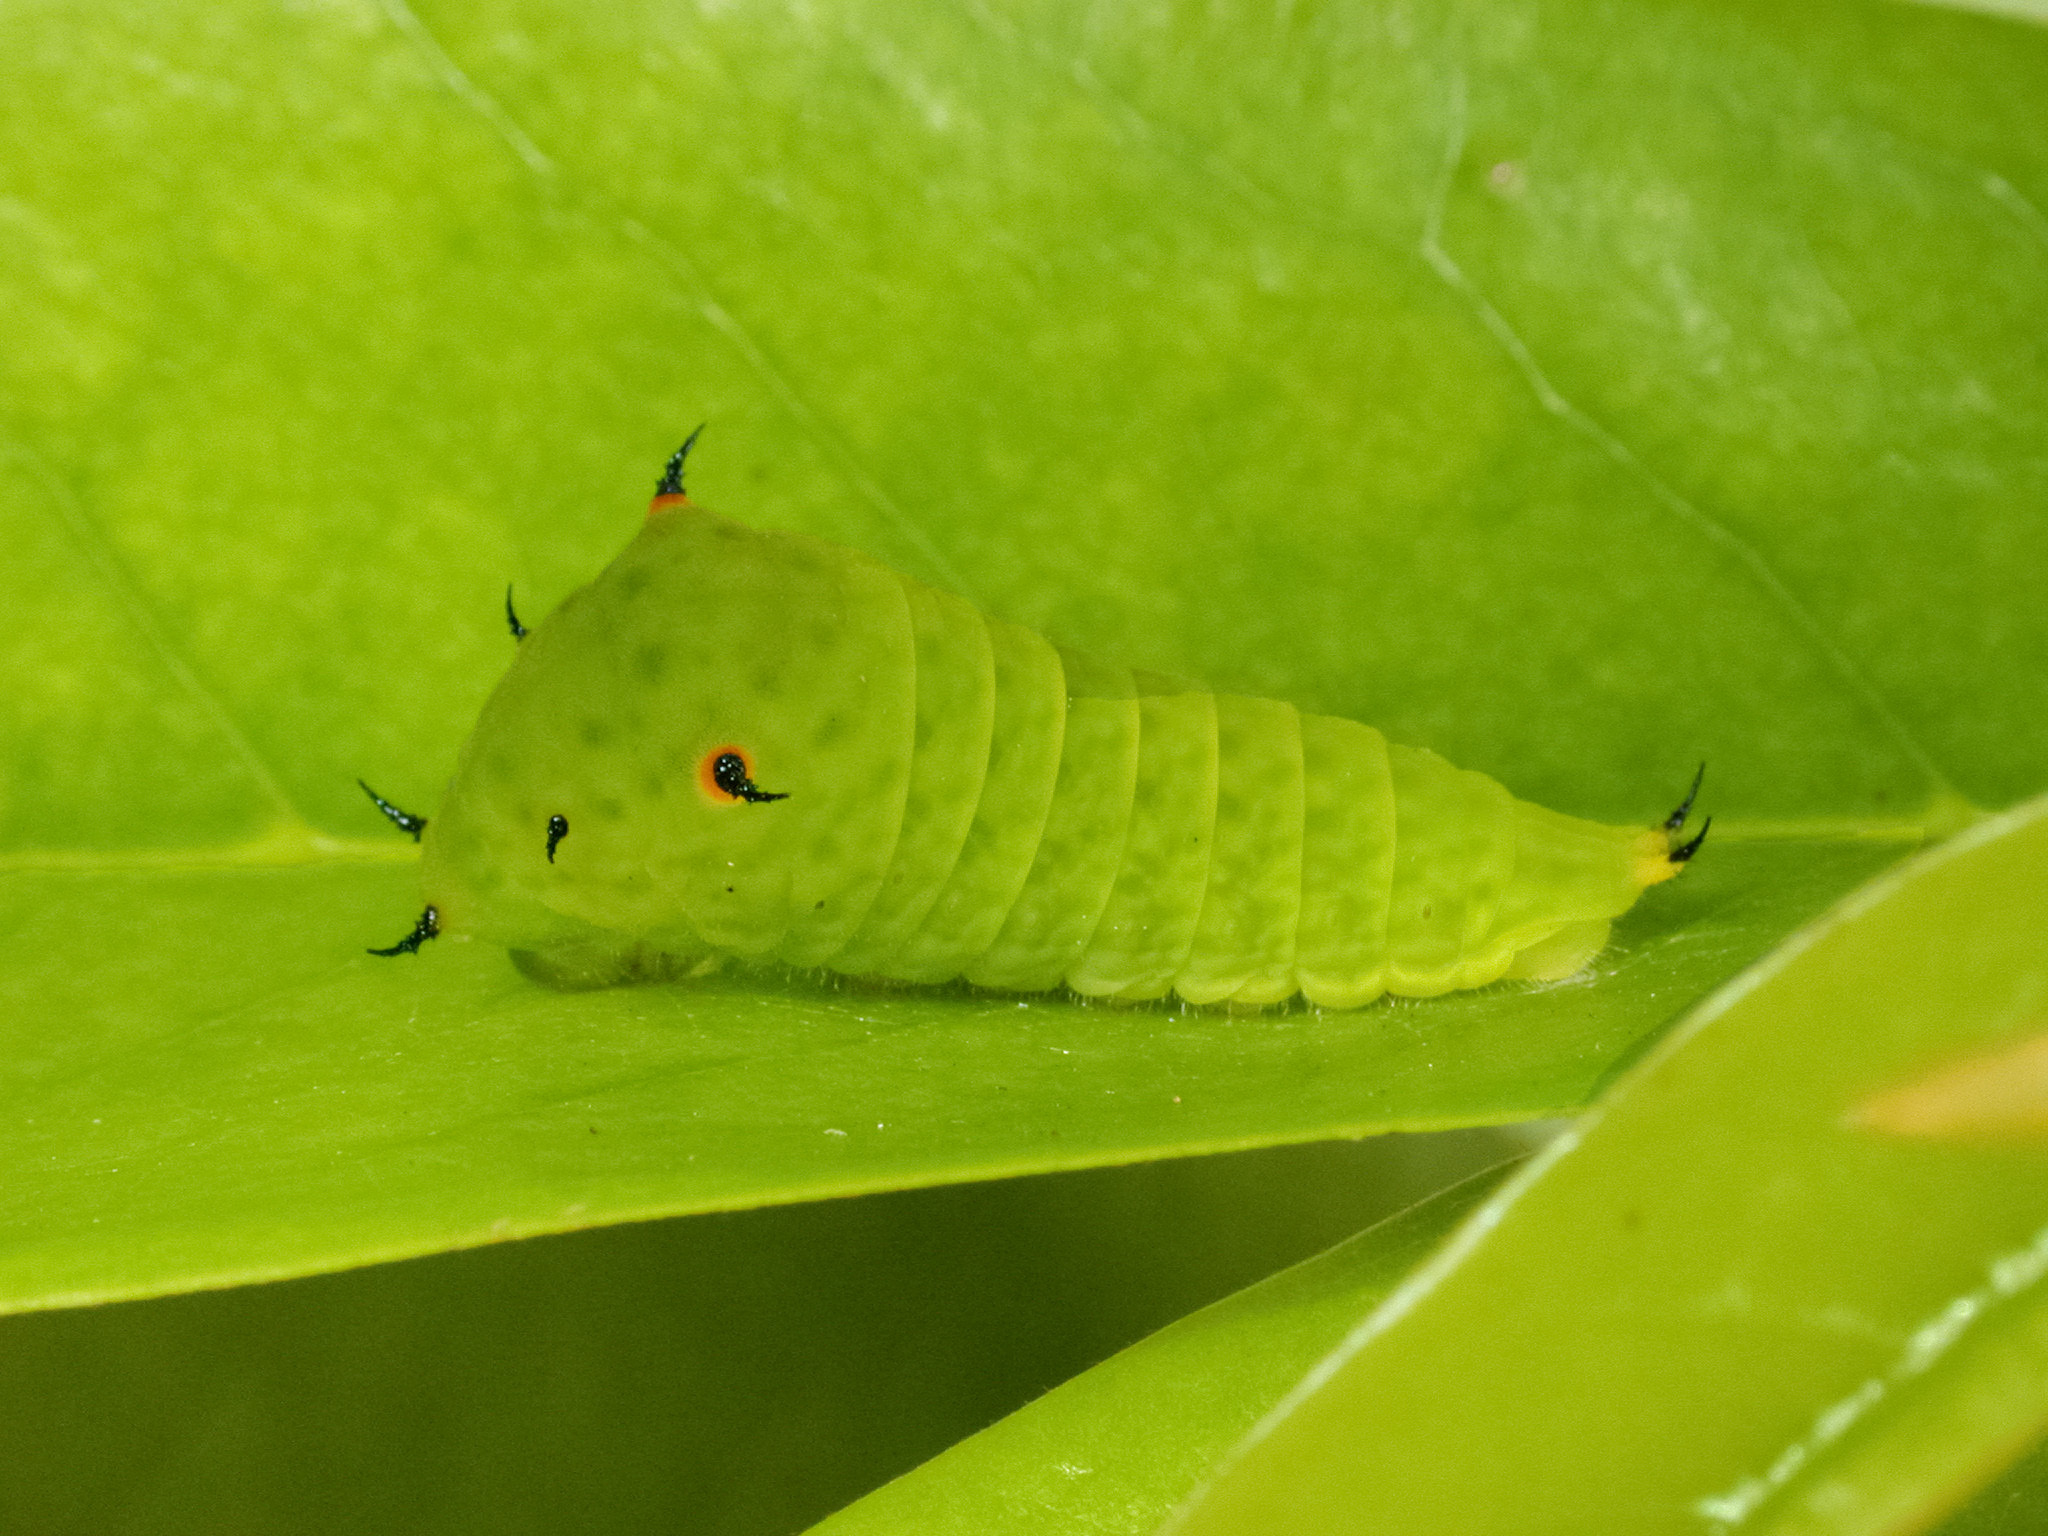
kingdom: Animalia
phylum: Arthropoda
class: Insecta
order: Lepidoptera
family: Papilionidae
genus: Graphium
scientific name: Graphium agamemnon
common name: Tailed jay
